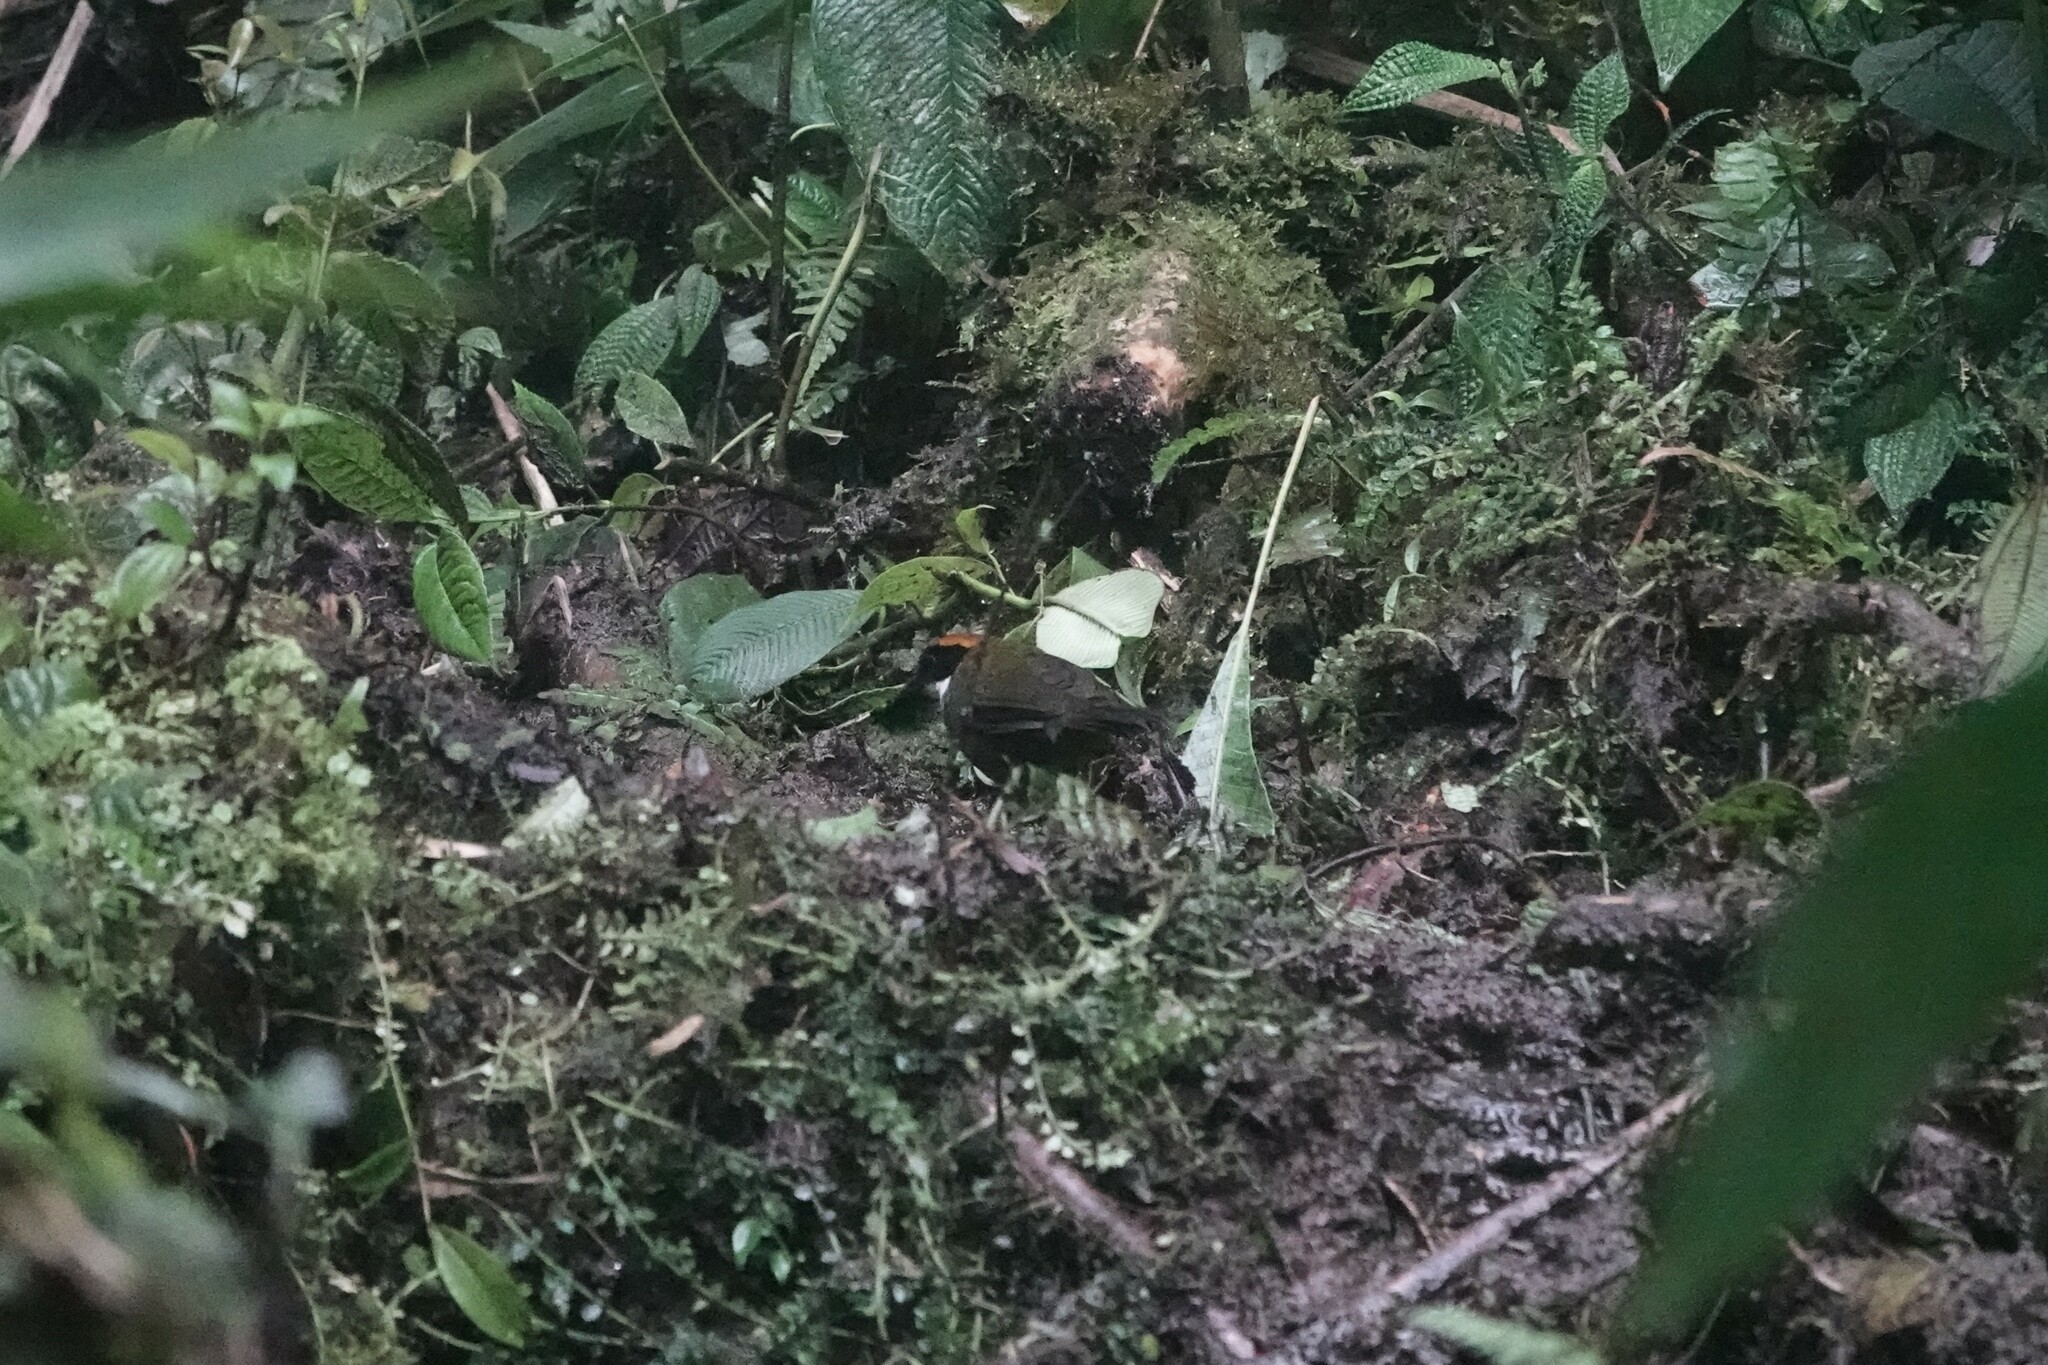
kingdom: Animalia
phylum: Chordata
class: Aves
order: Passeriformes
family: Passerellidae
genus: Arremon
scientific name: Arremon brunneinucha
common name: Chestnut-capped brushfinch
